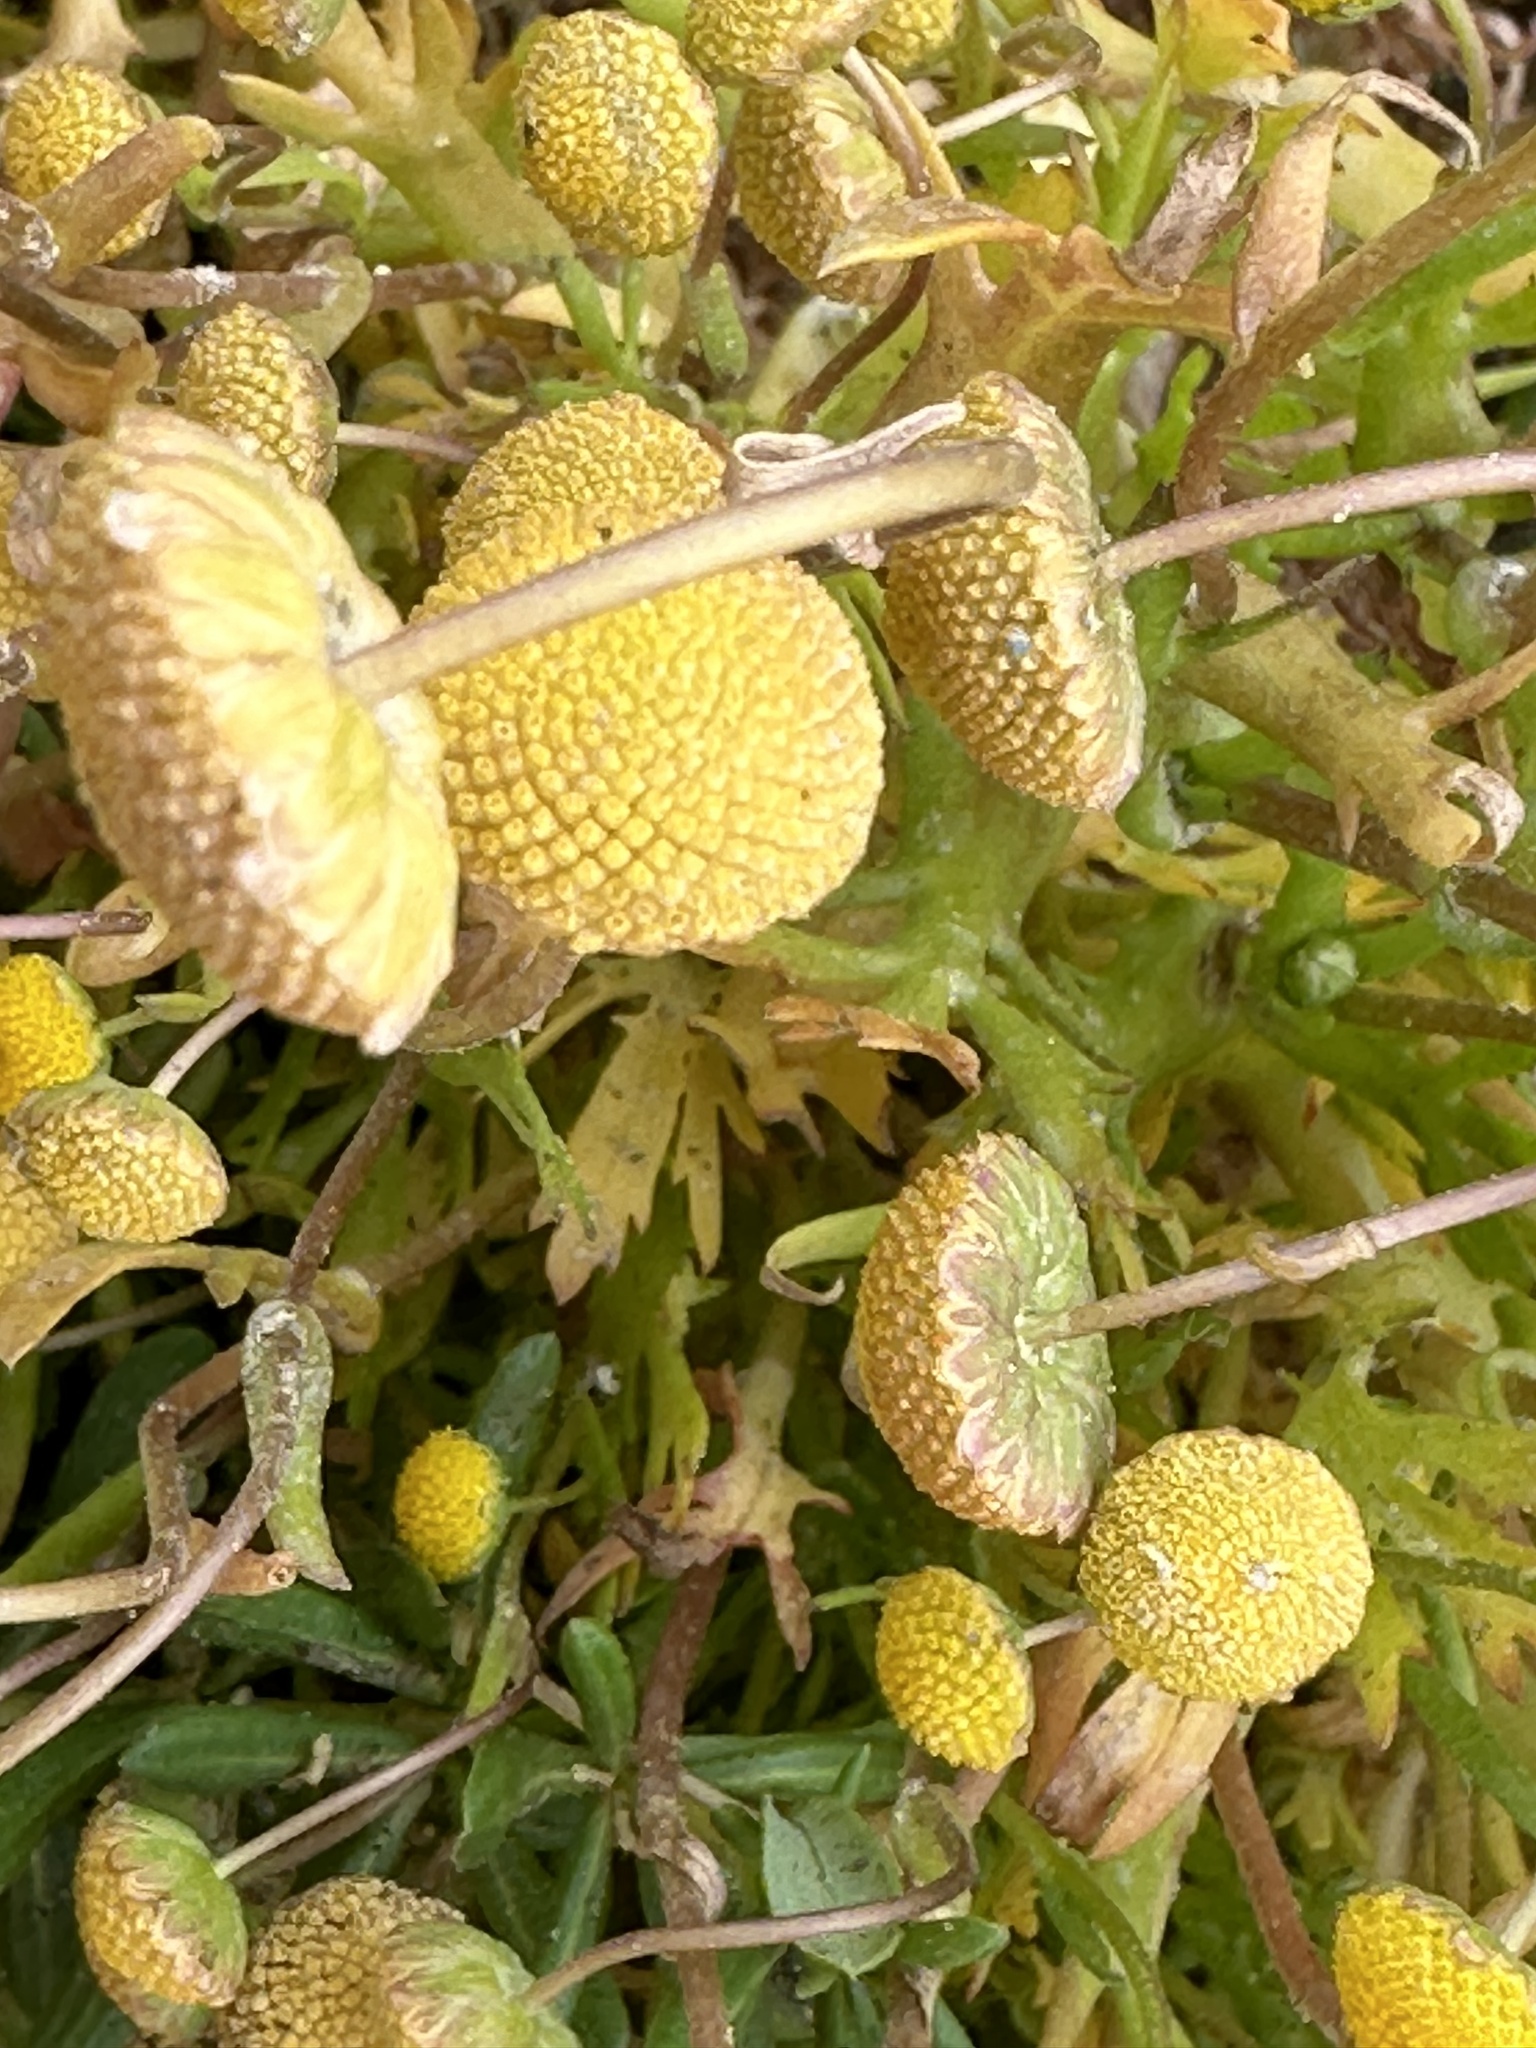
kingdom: Plantae
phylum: Tracheophyta
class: Magnoliopsida
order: Asterales
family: Asteraceae
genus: Cotula
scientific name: Cotula coronopifolia
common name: Buttonweed
